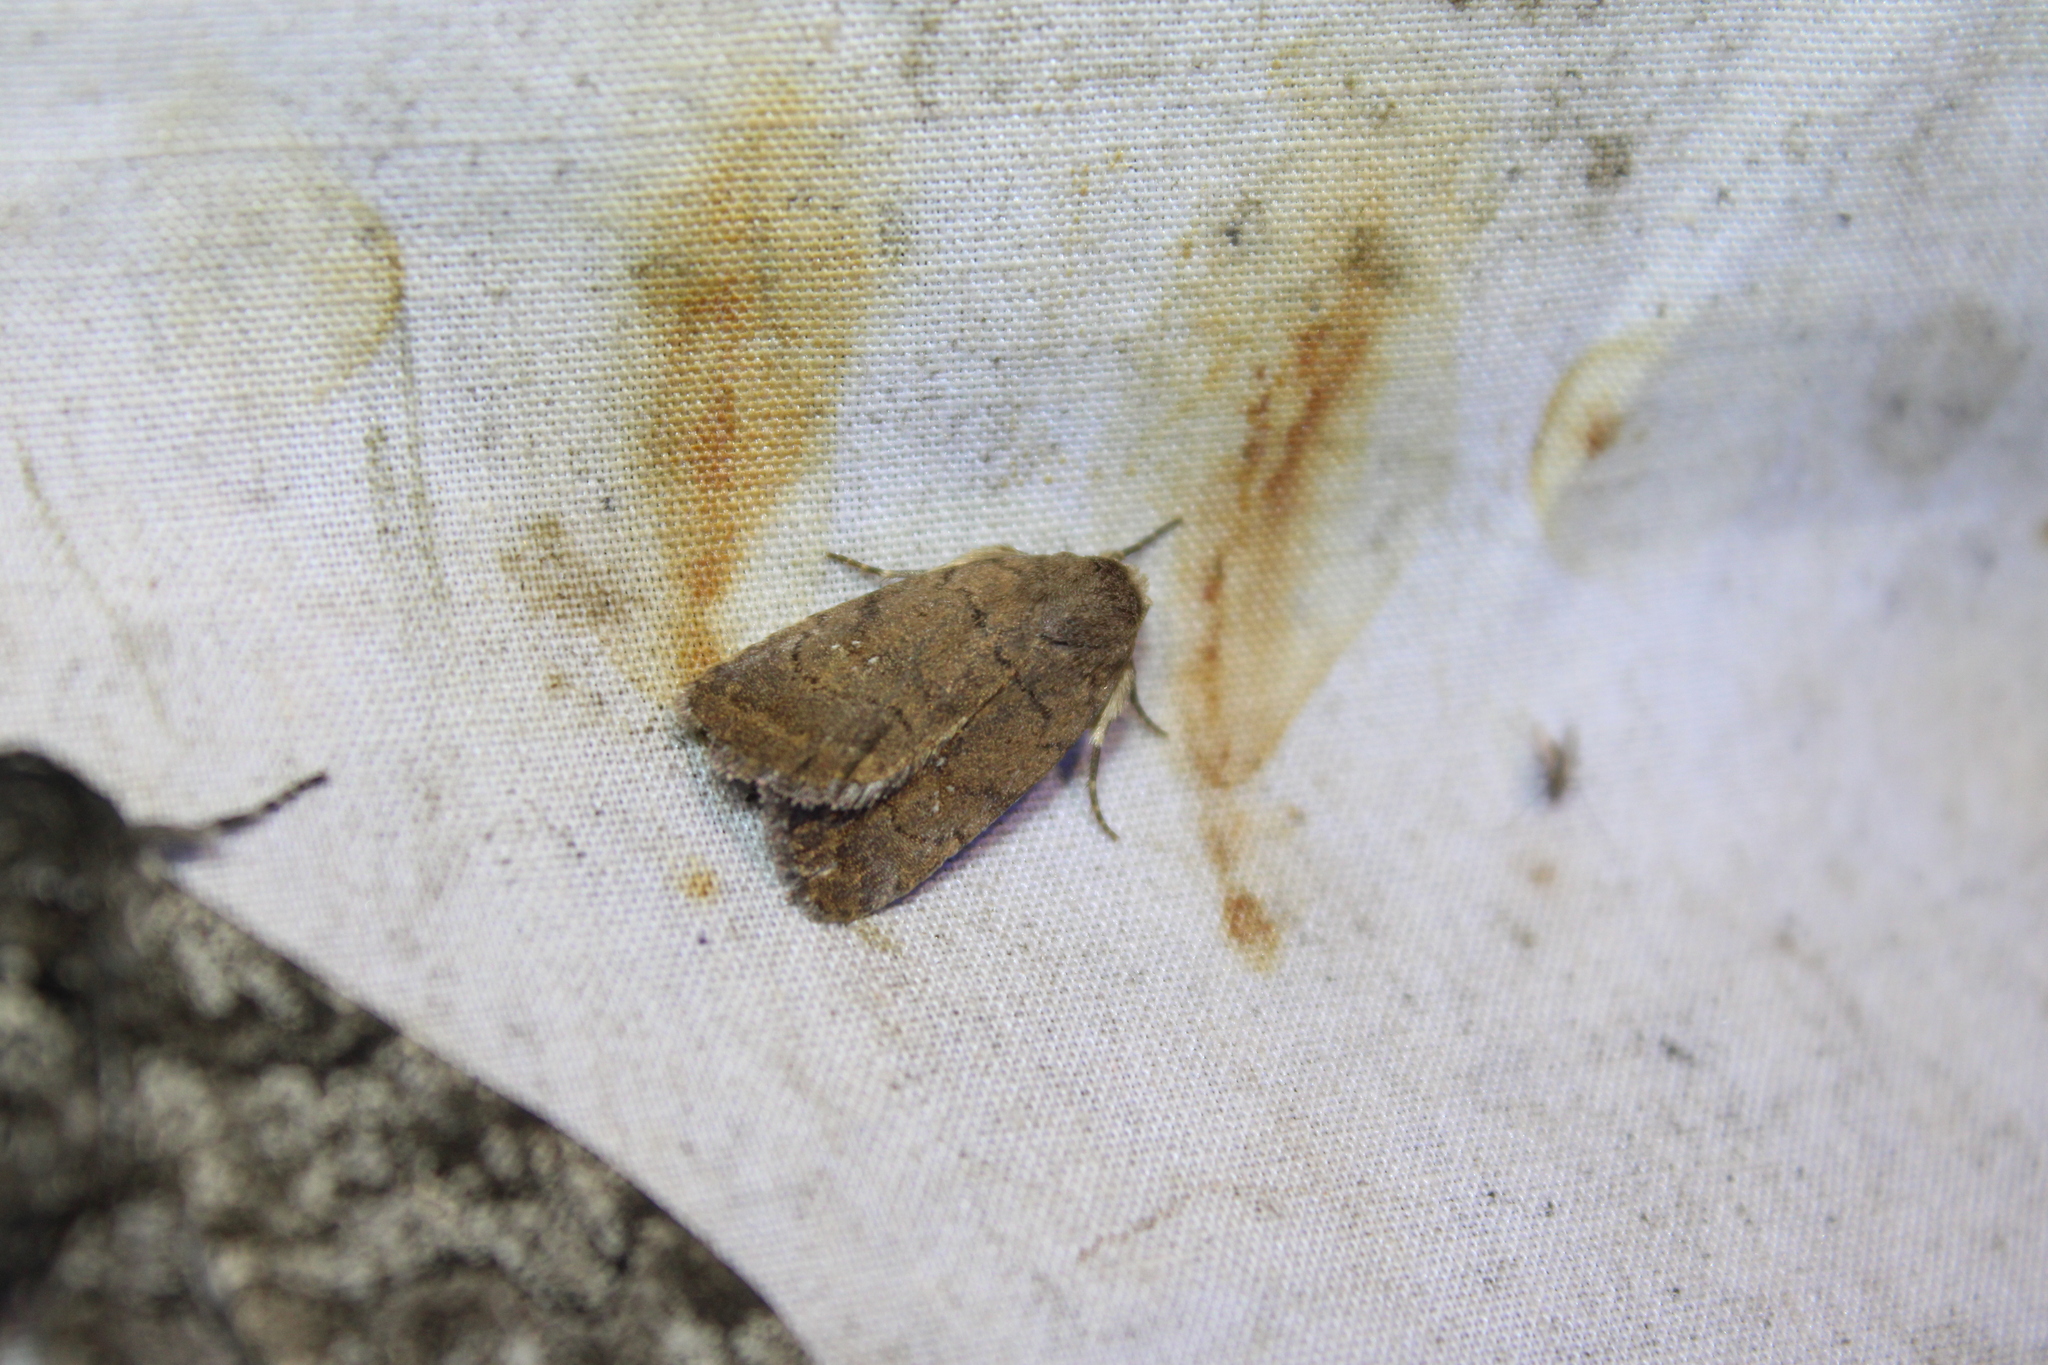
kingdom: Animalia
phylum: Arthropoda
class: Insecta
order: Lepidoptera
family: Noctuidae
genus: Athetis
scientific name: Athetis tarda
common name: Slowpoke moth
